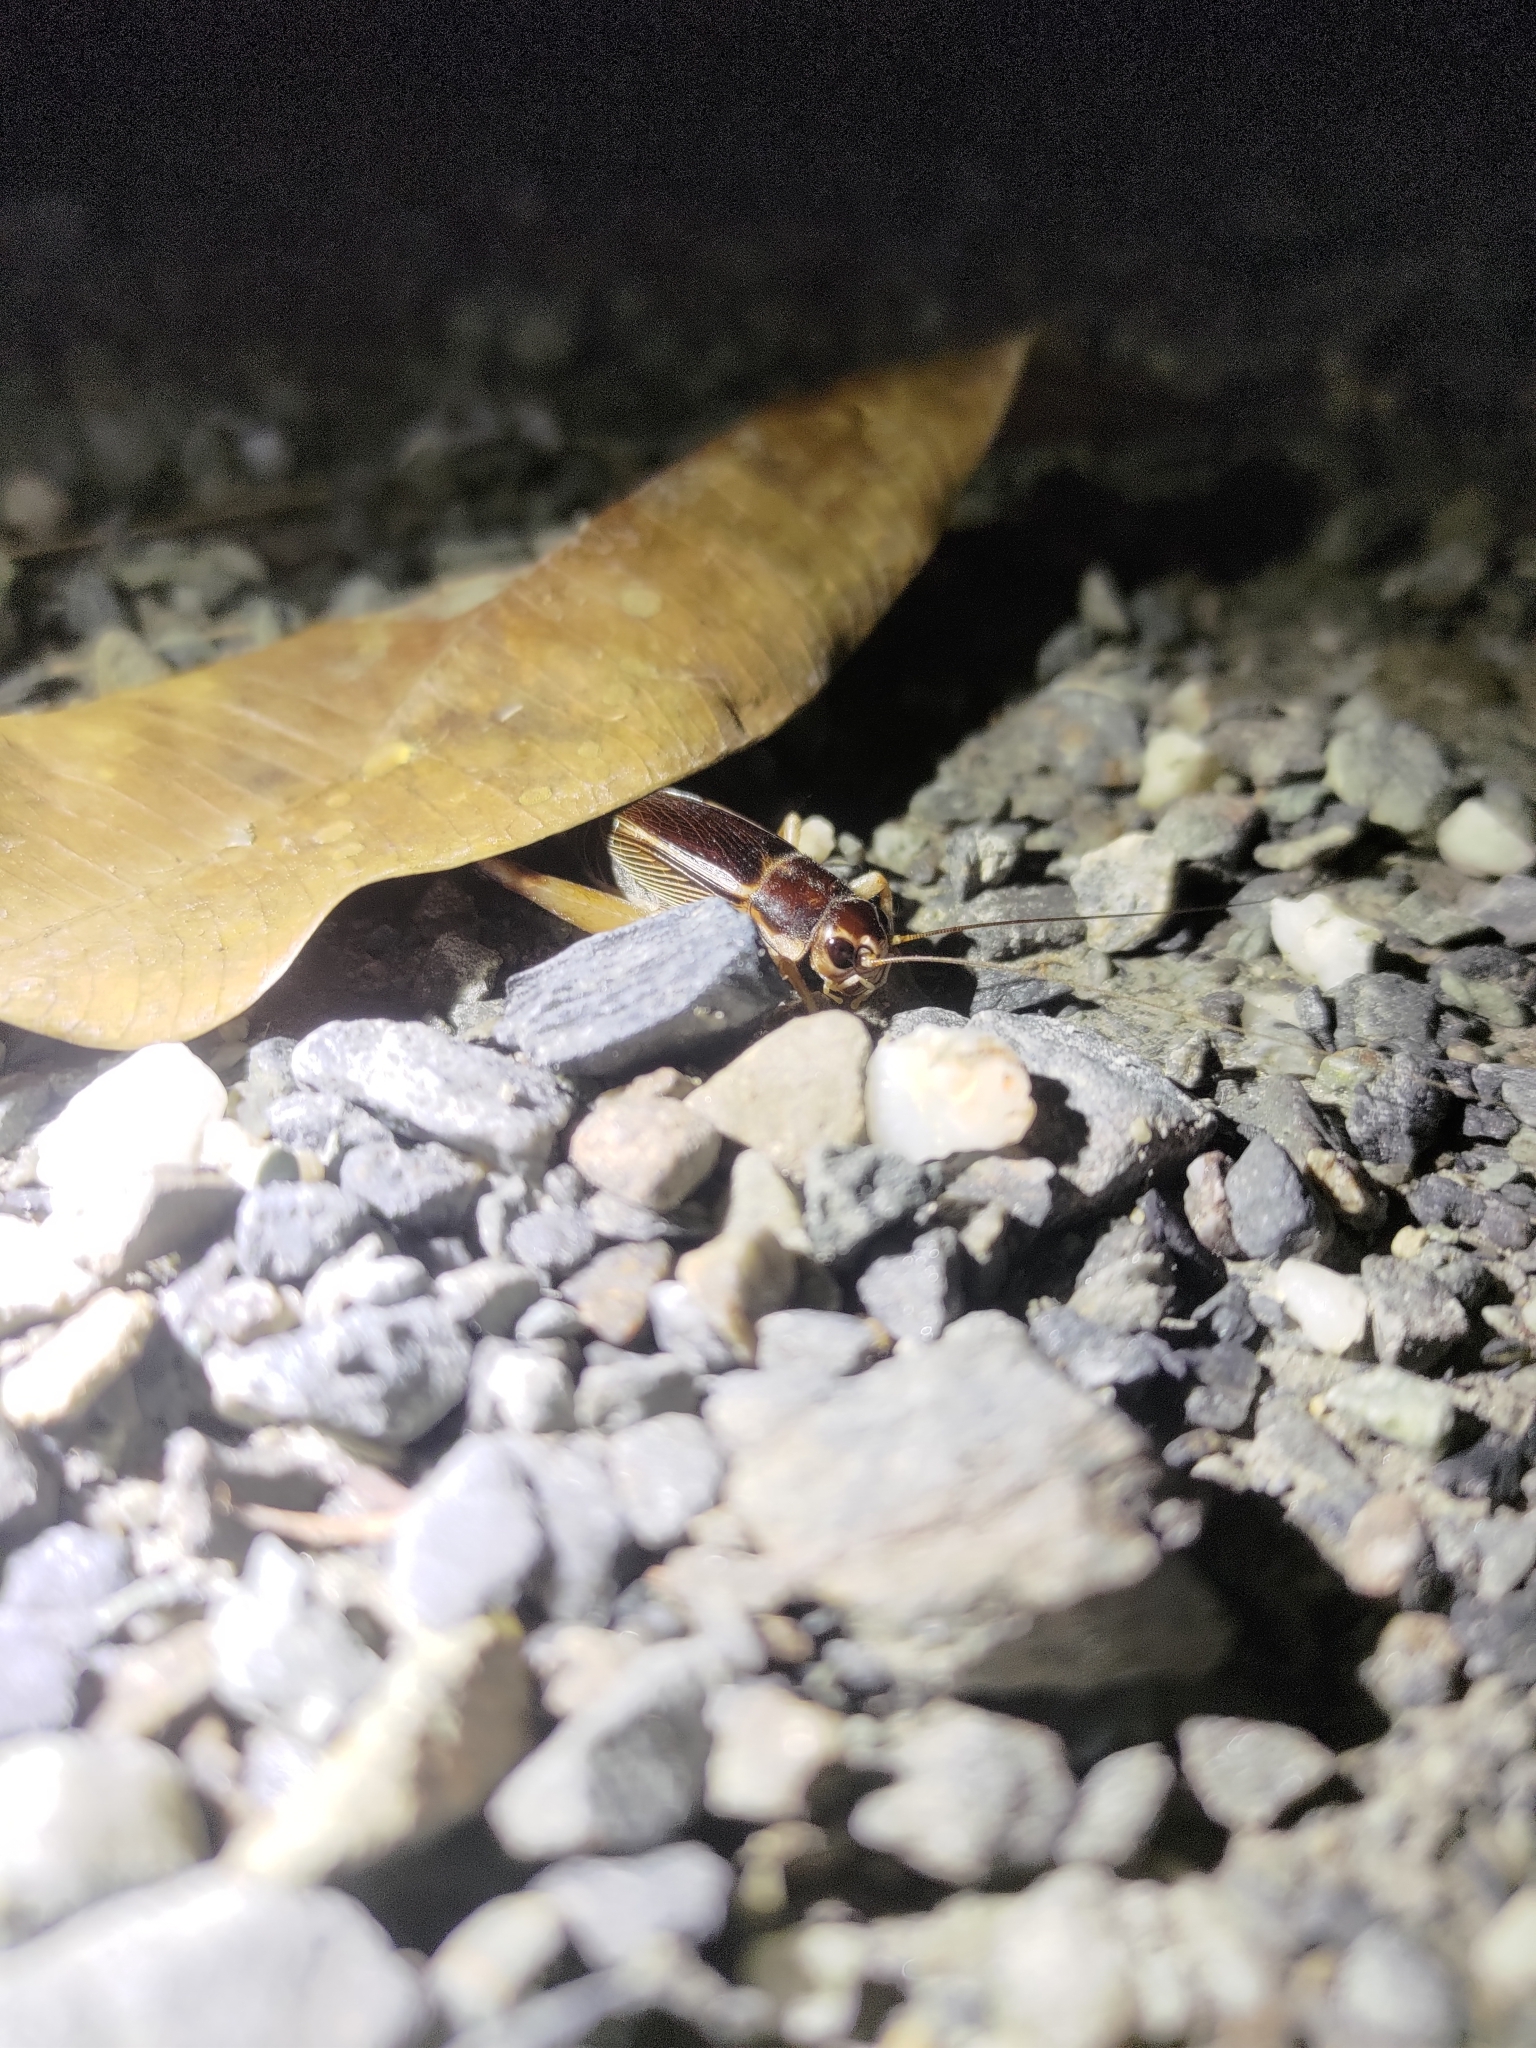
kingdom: Animalia
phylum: Arthropoda
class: Insecta
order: Orthoptera
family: Gryllidae
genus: Teleogryllus
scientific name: Teleogryllus mitratus
